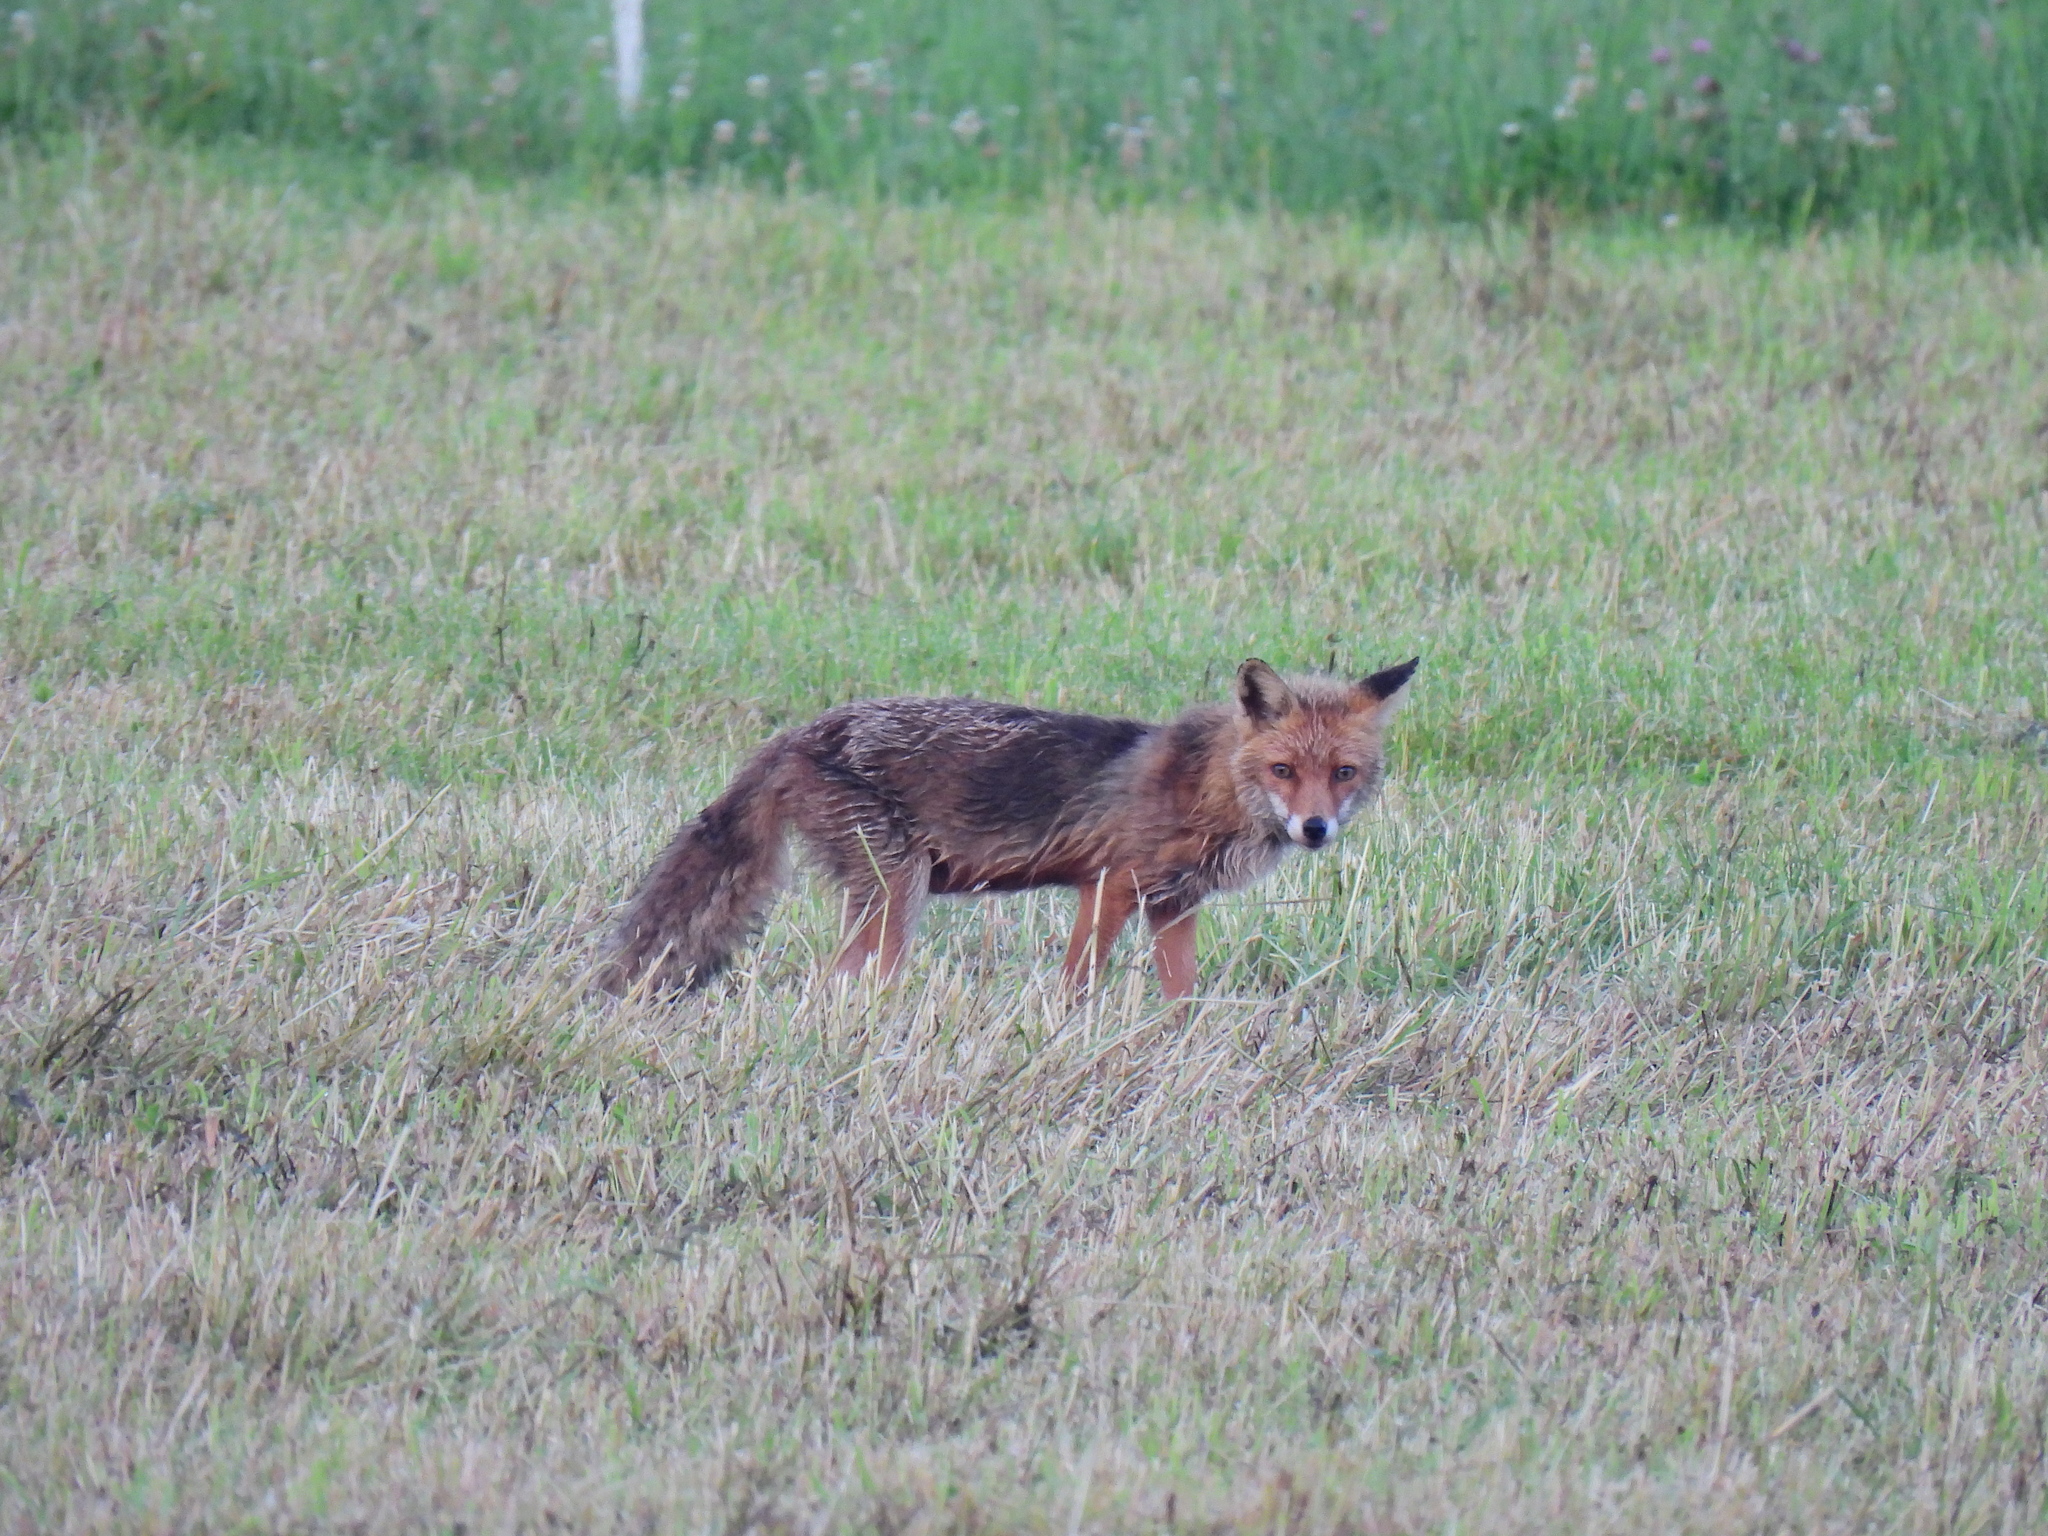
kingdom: Animalia
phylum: Chordata
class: Mammalia
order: Carnivora
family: Canidae
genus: Vulpes
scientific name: Vulpes vulpes
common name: Red fox
